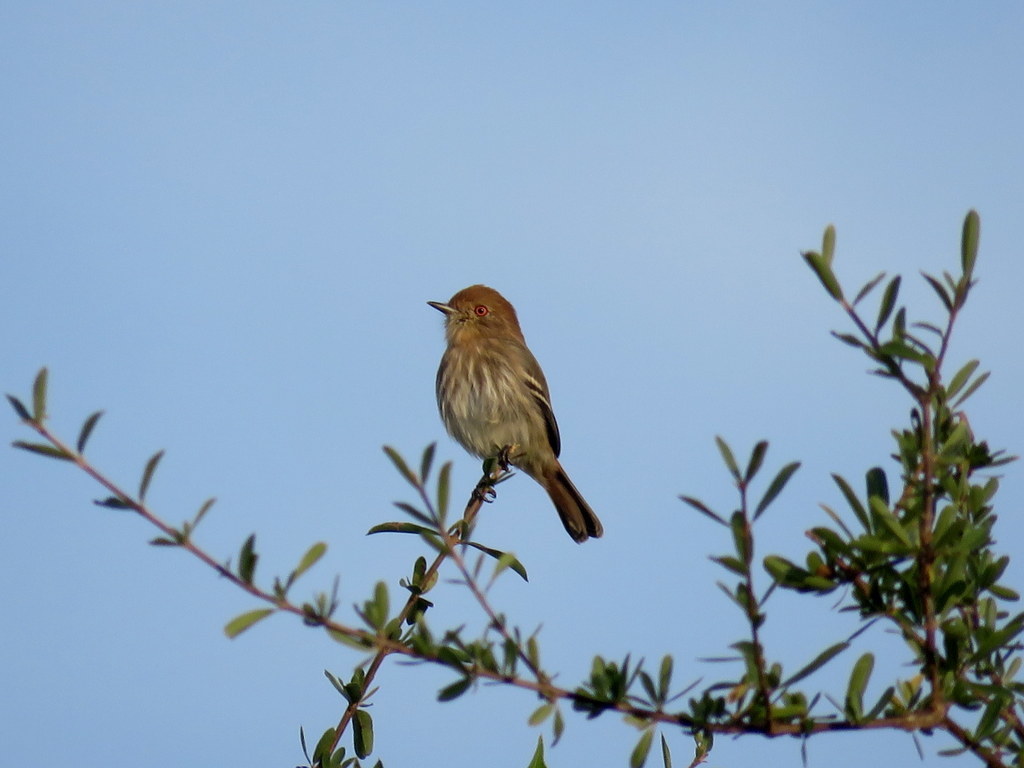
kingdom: Animalia
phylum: Chordata
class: Aves
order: Passeriformes
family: Tyrannidae
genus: Knipolegus
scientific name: Knipolegus striaticeps
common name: Cinereous tyrant
